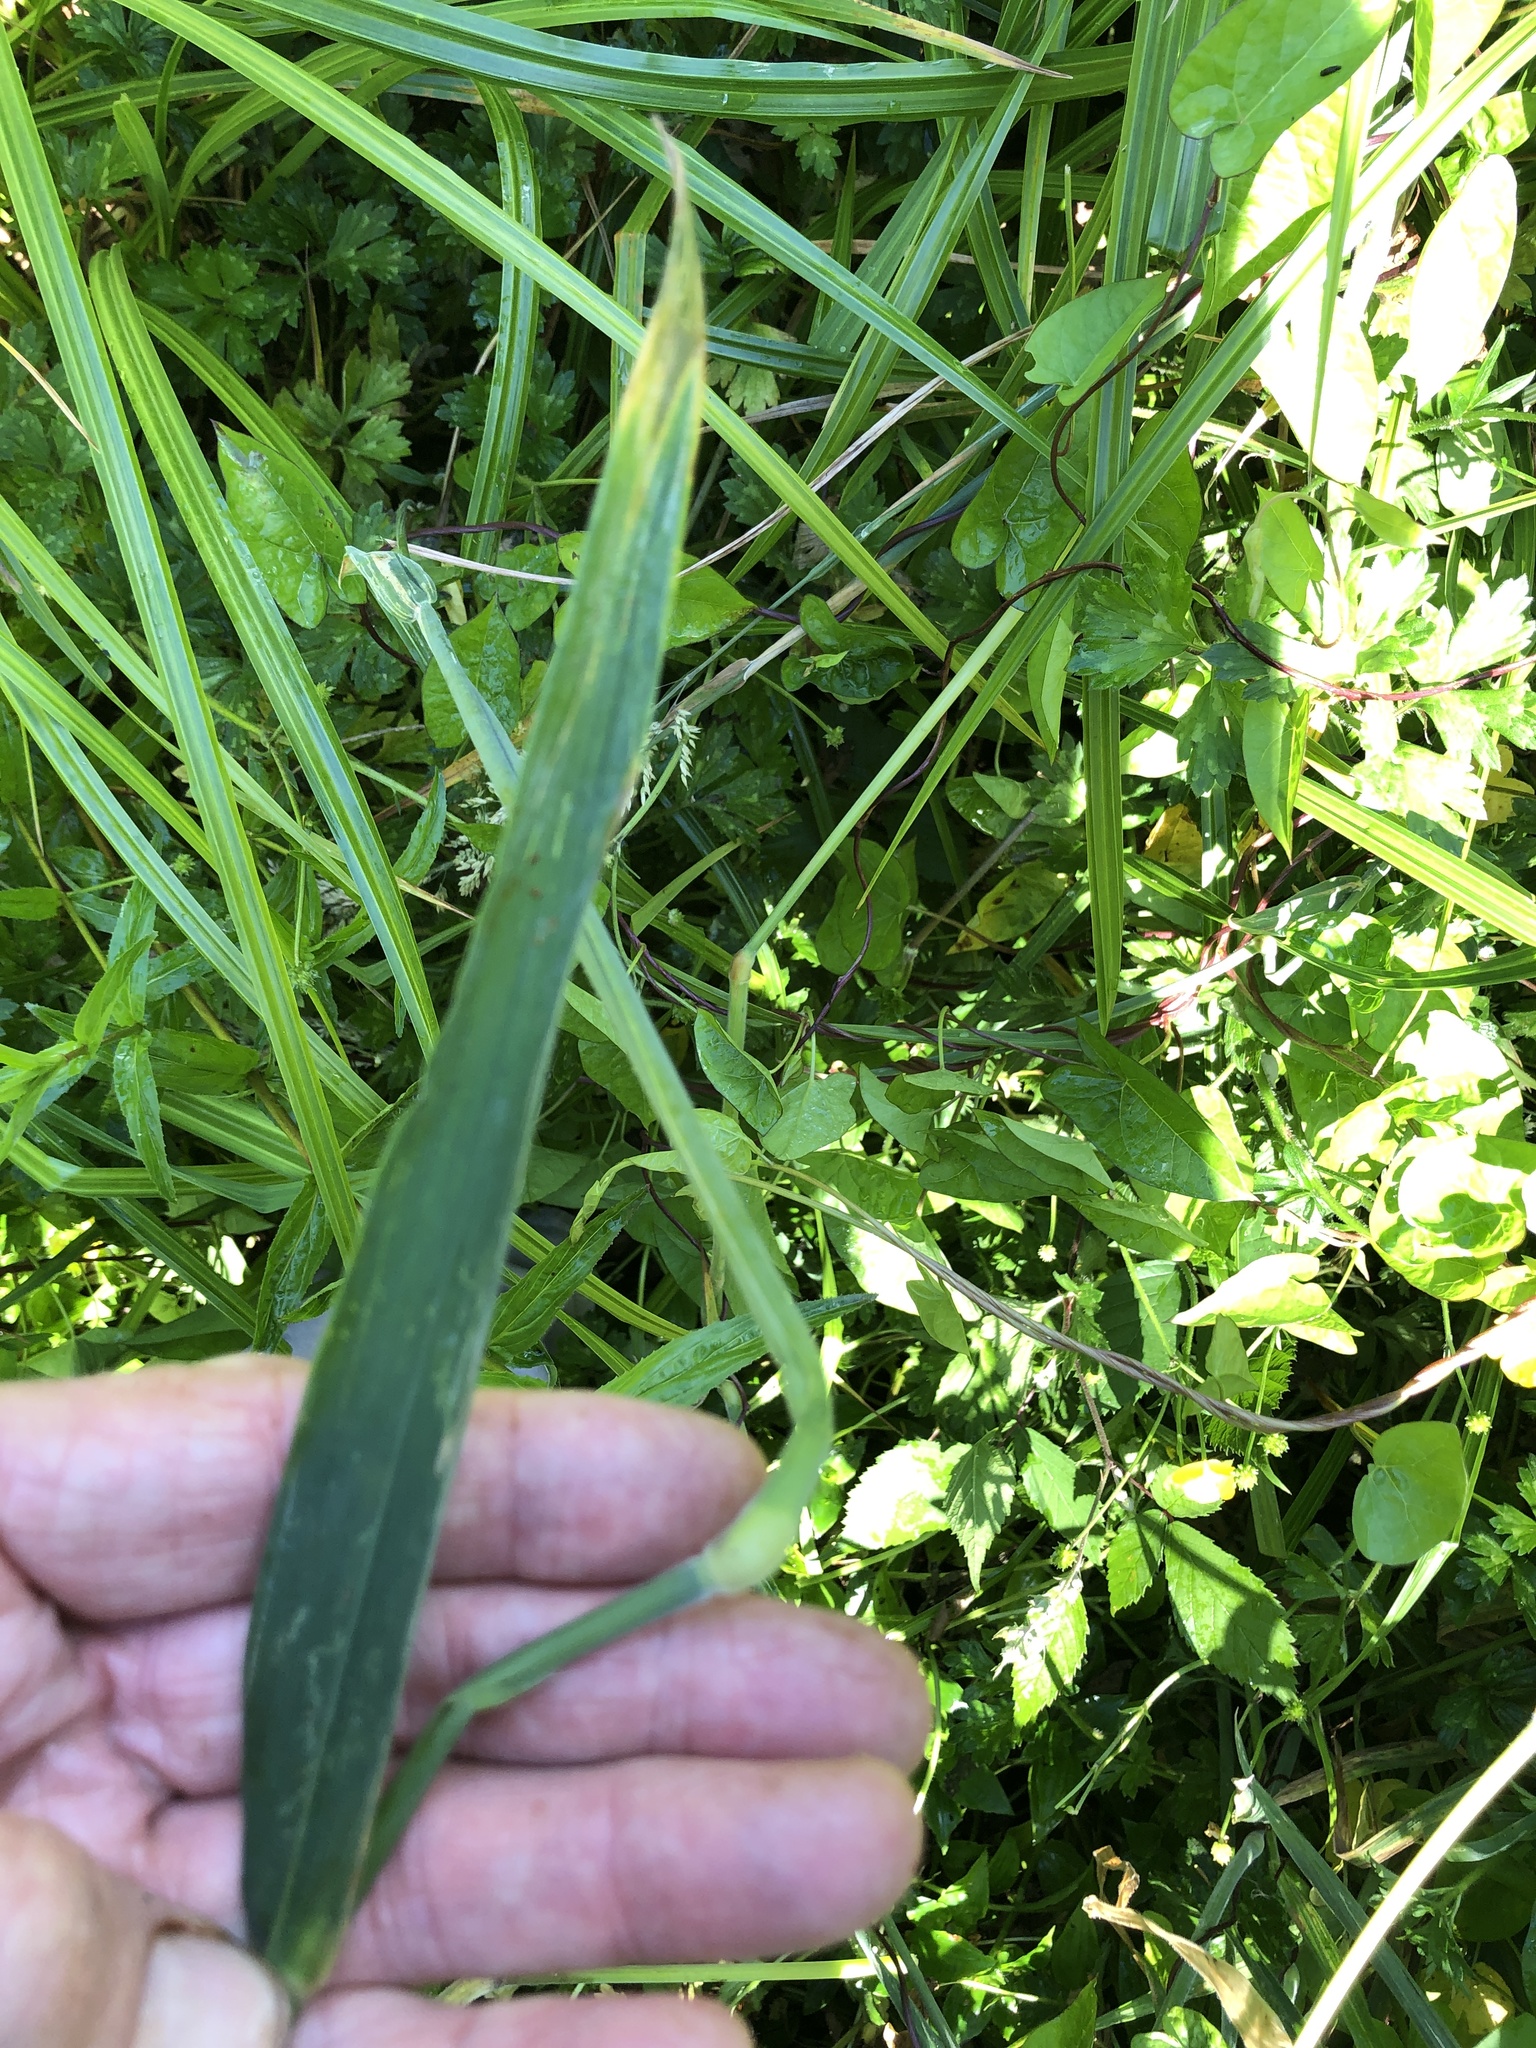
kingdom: Plantae
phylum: Tracheophyta
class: Liliopsida
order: Poales
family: Poaceae
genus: Holcus
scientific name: Holcus lanatus
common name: Yorkshire-fog
